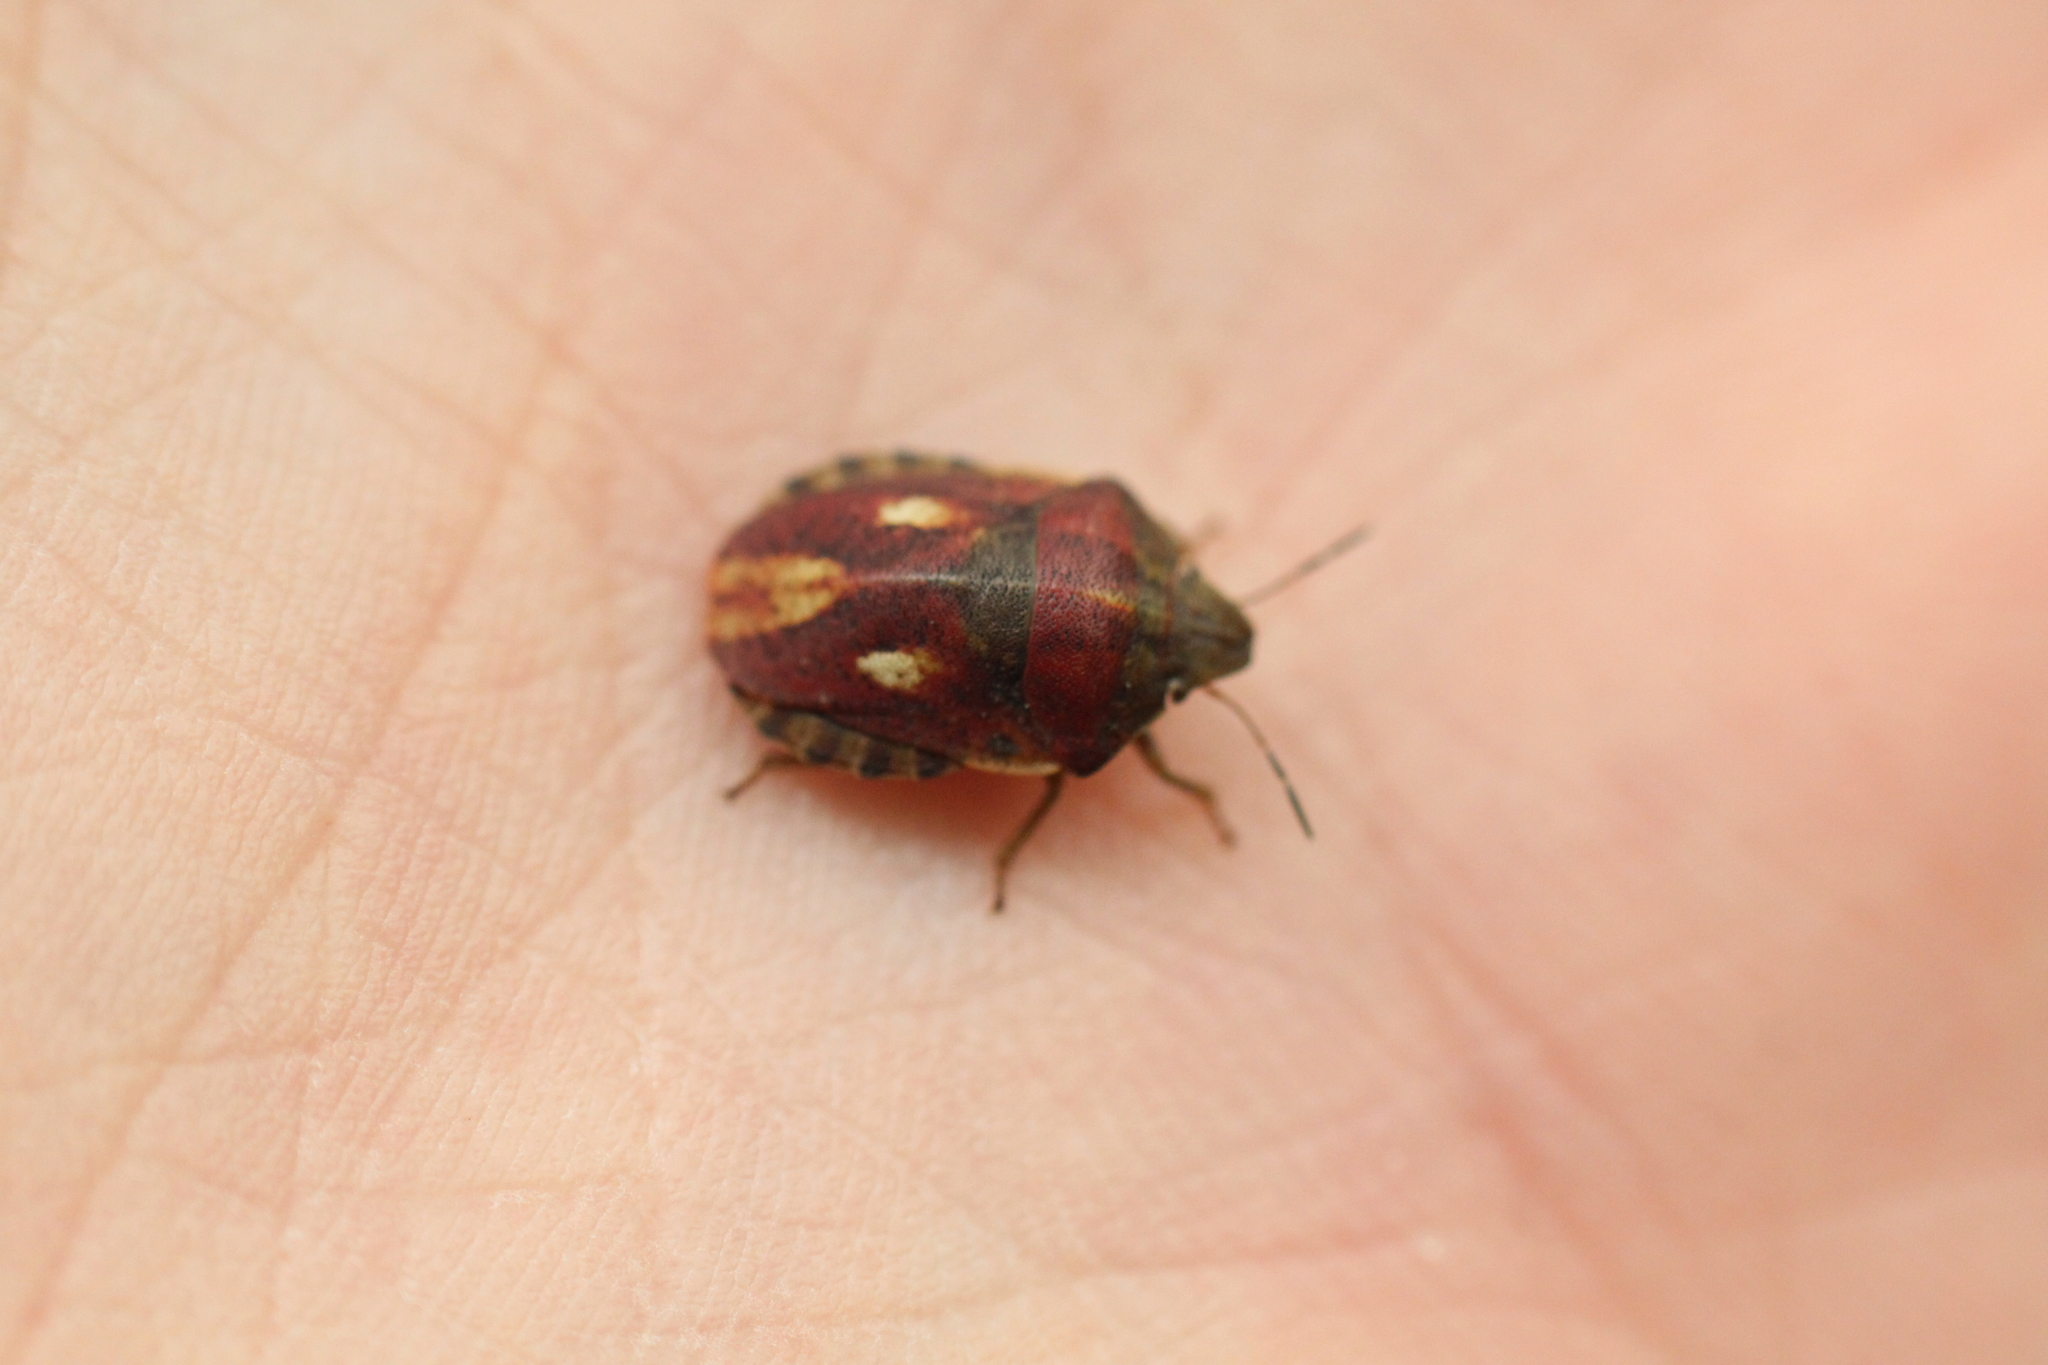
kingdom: Animalia
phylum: Arthropoda
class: Insecta
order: Hemiptera
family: Scutelleridae
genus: Eurygaster
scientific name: Eurygaster testudinaria
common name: Tortoise bug
